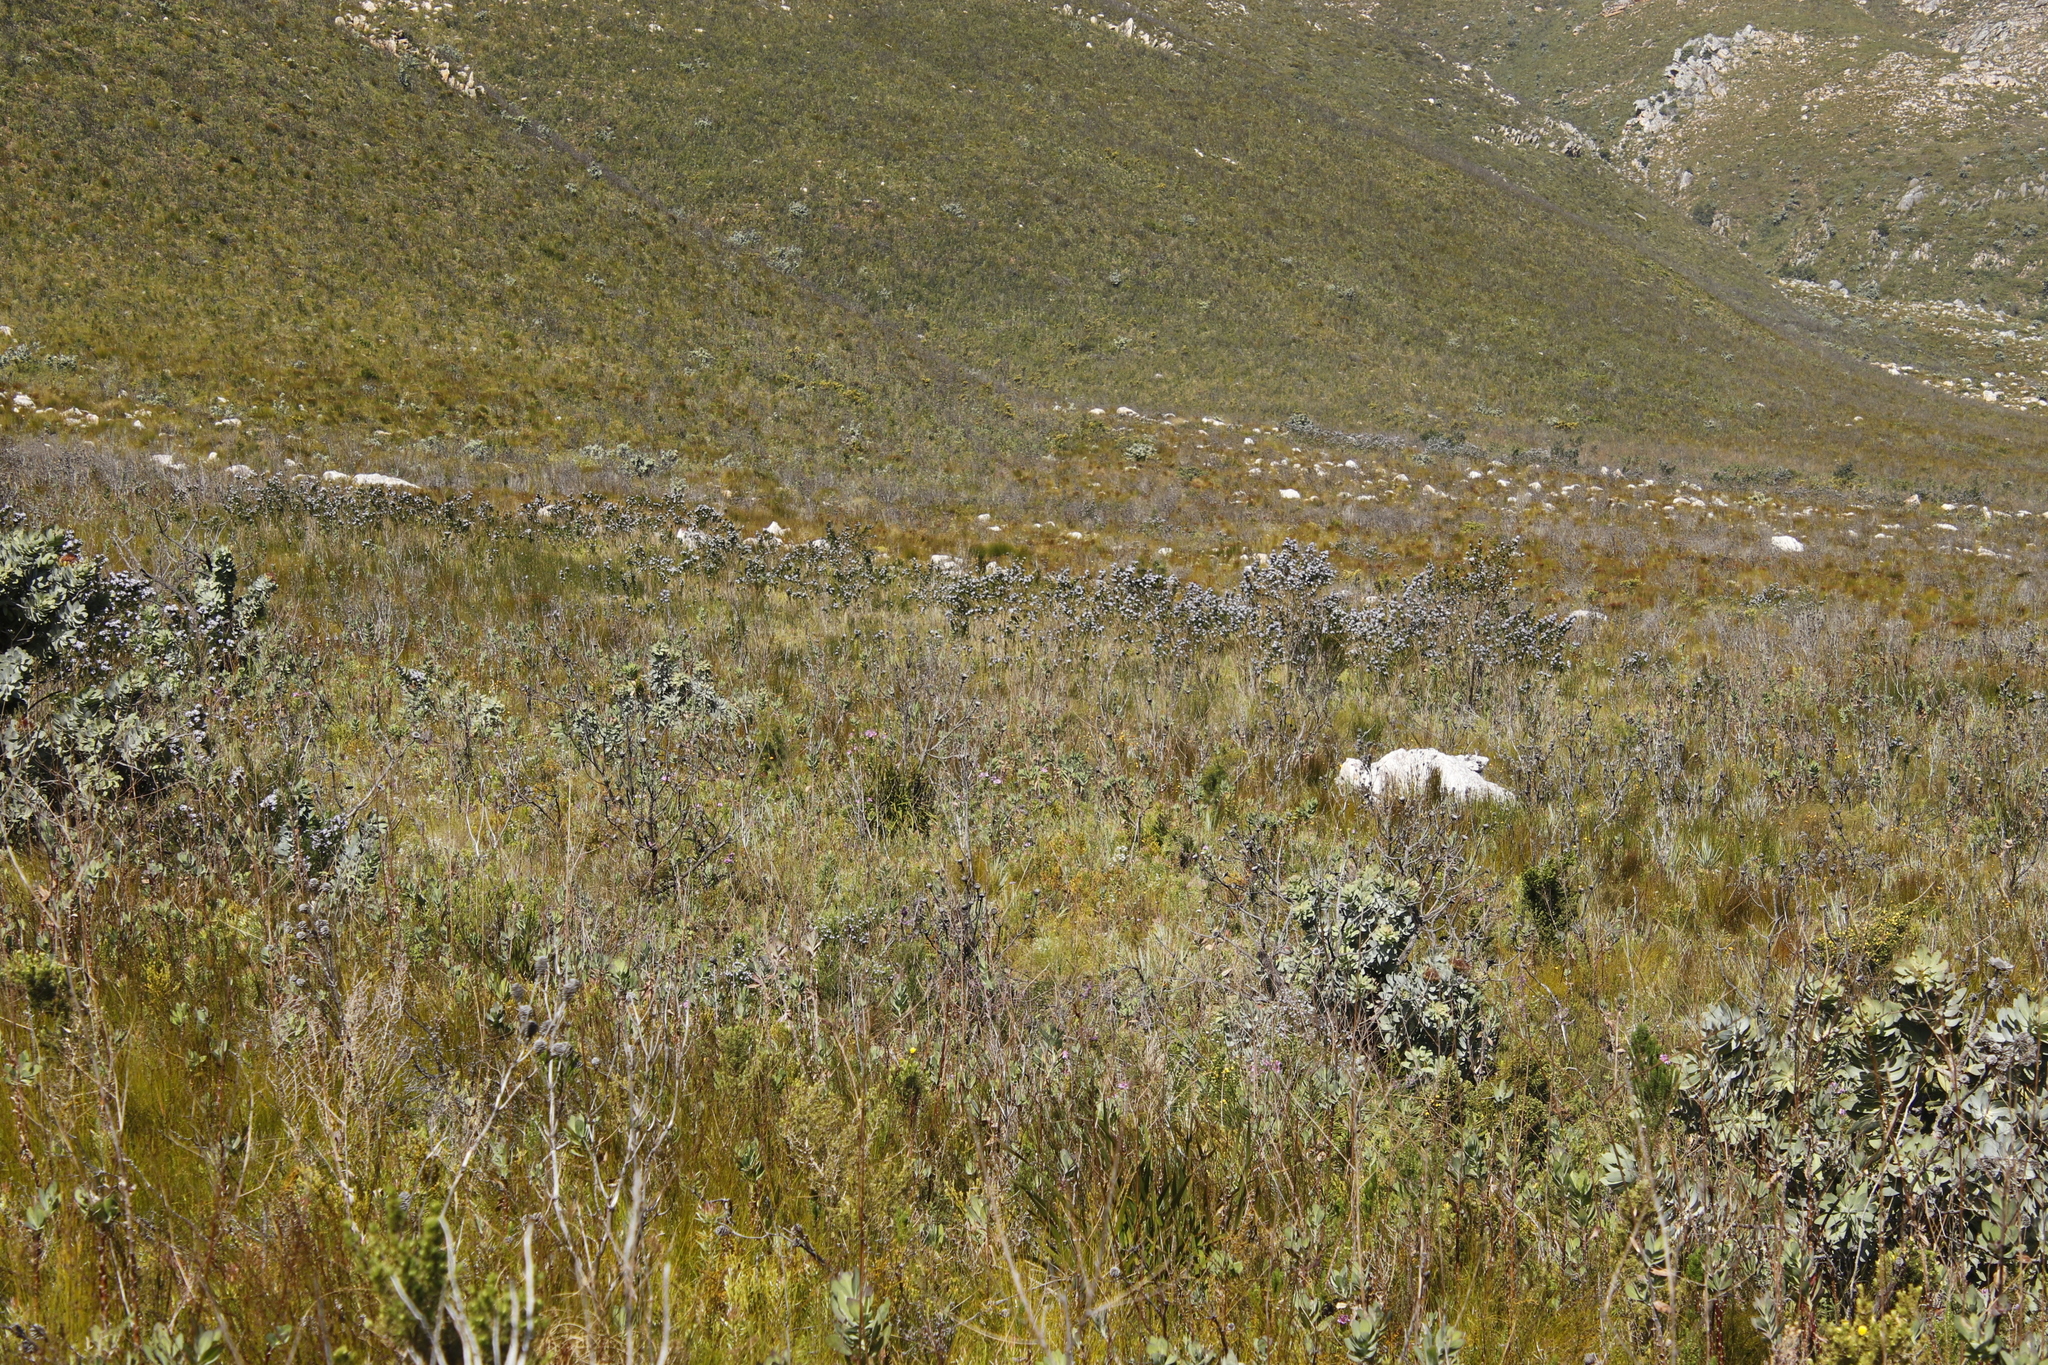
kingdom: Plantae
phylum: Tracheophyta
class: Magnoliopsida
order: Proteales
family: Proteaceae
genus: Protea
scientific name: Protea nitida
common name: Tree protea
